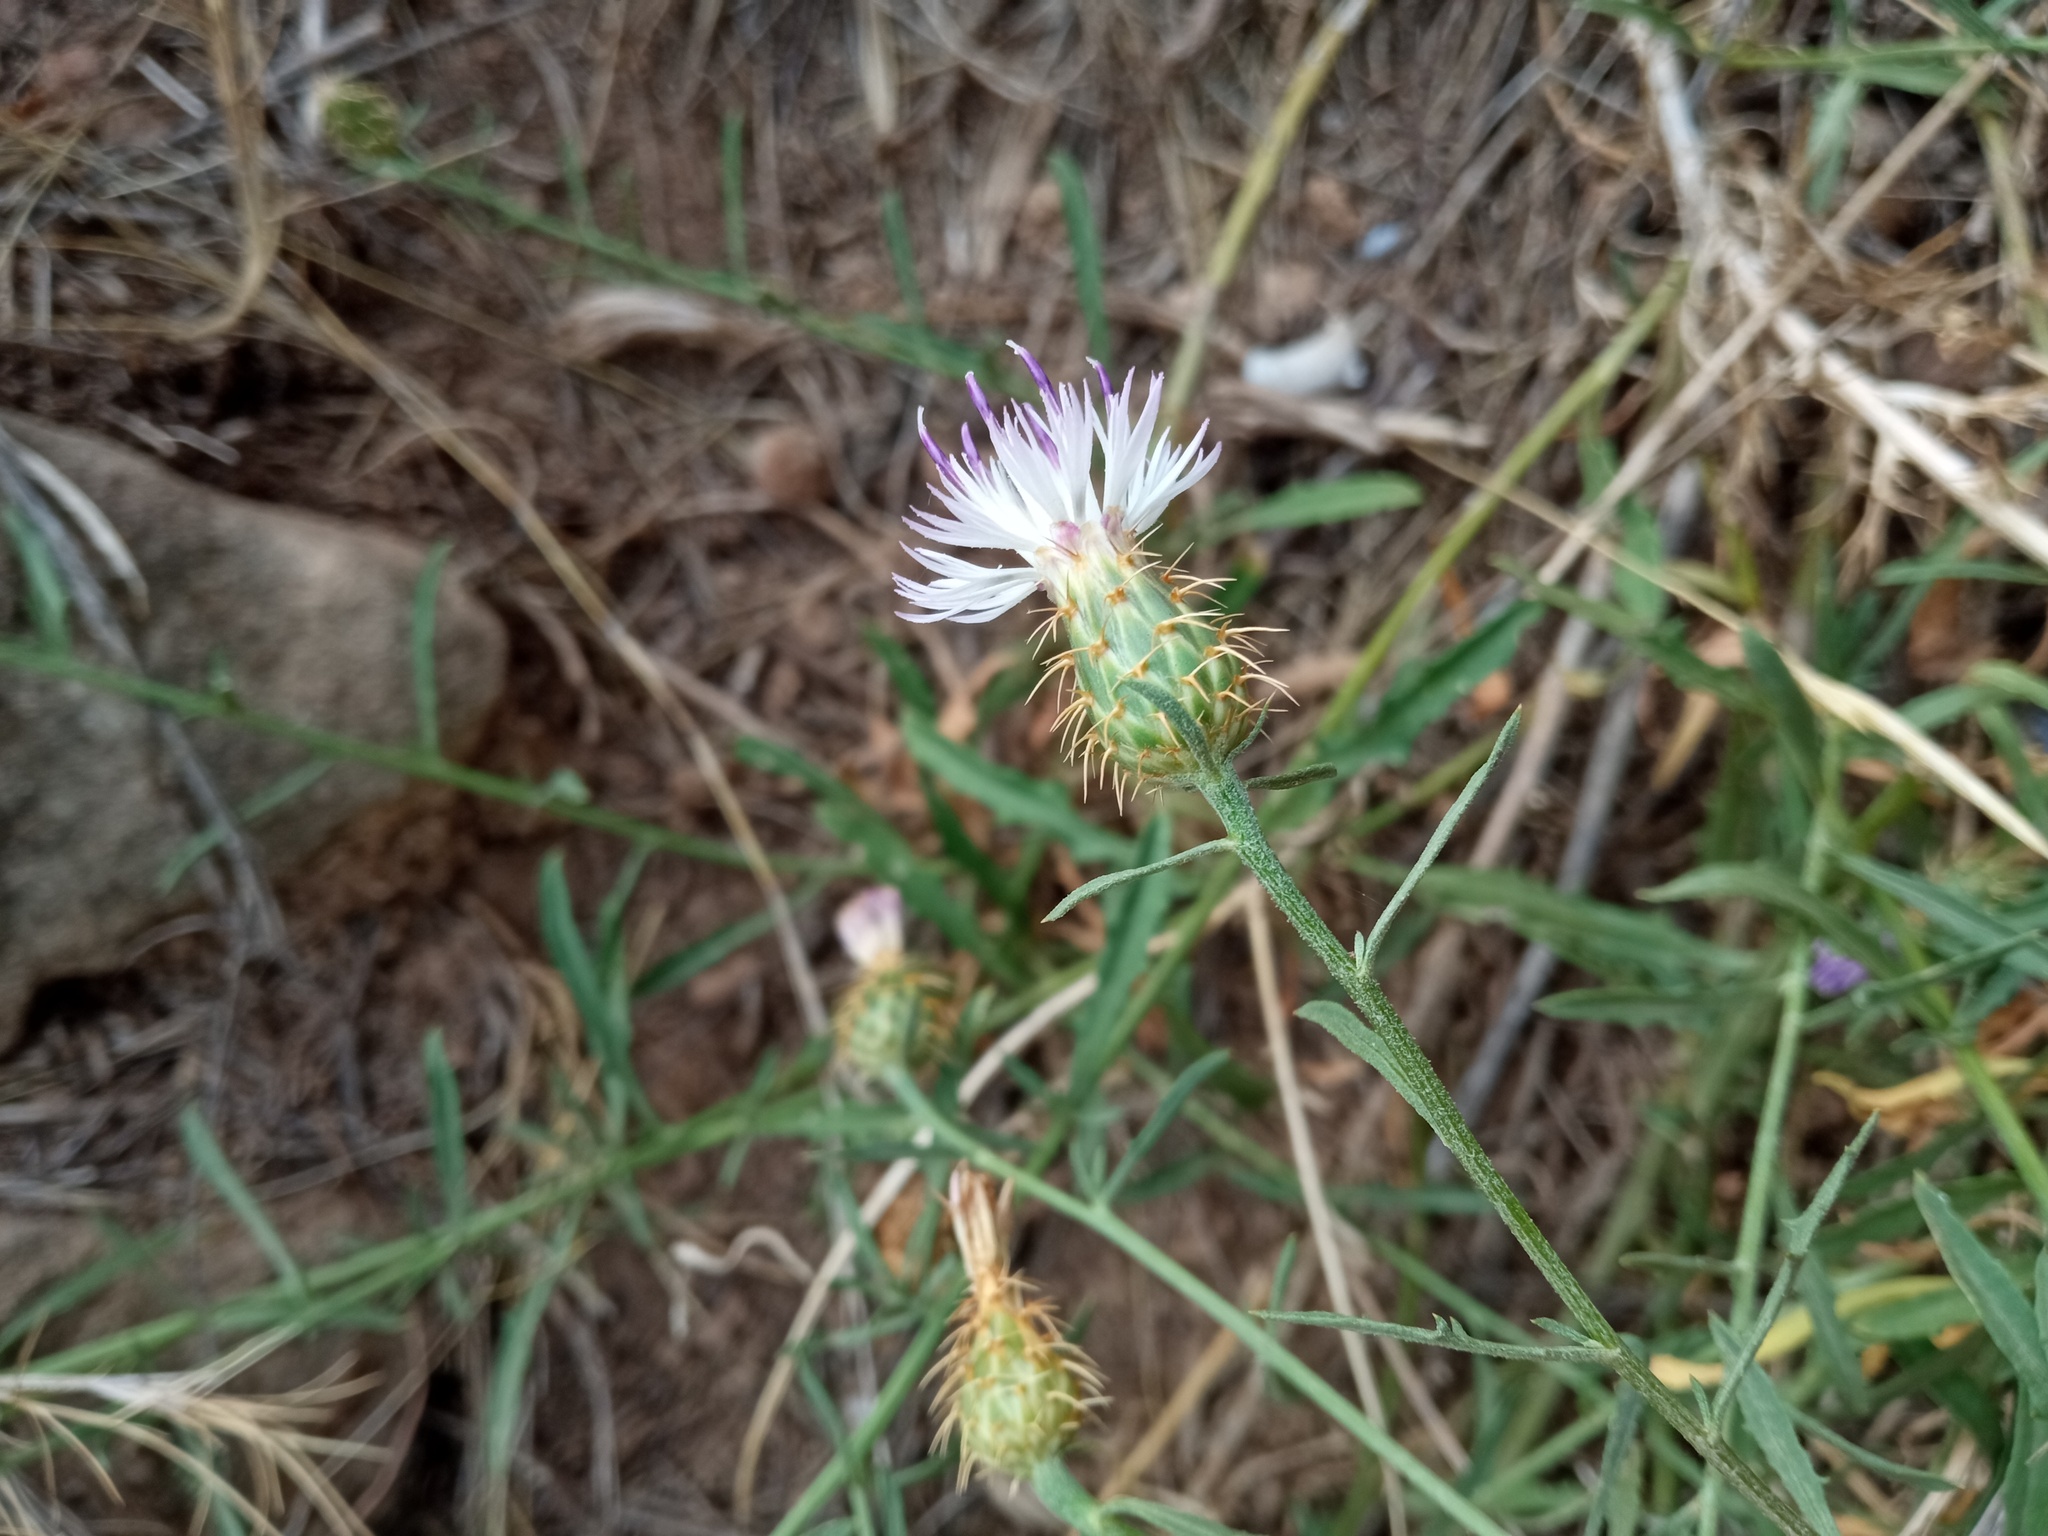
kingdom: Plantae
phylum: Tracheophyta
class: Magnoliopsida
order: Asterales
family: Asteraceae
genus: Centaurea
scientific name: Centaurea aspera
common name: Rough star-thistle
